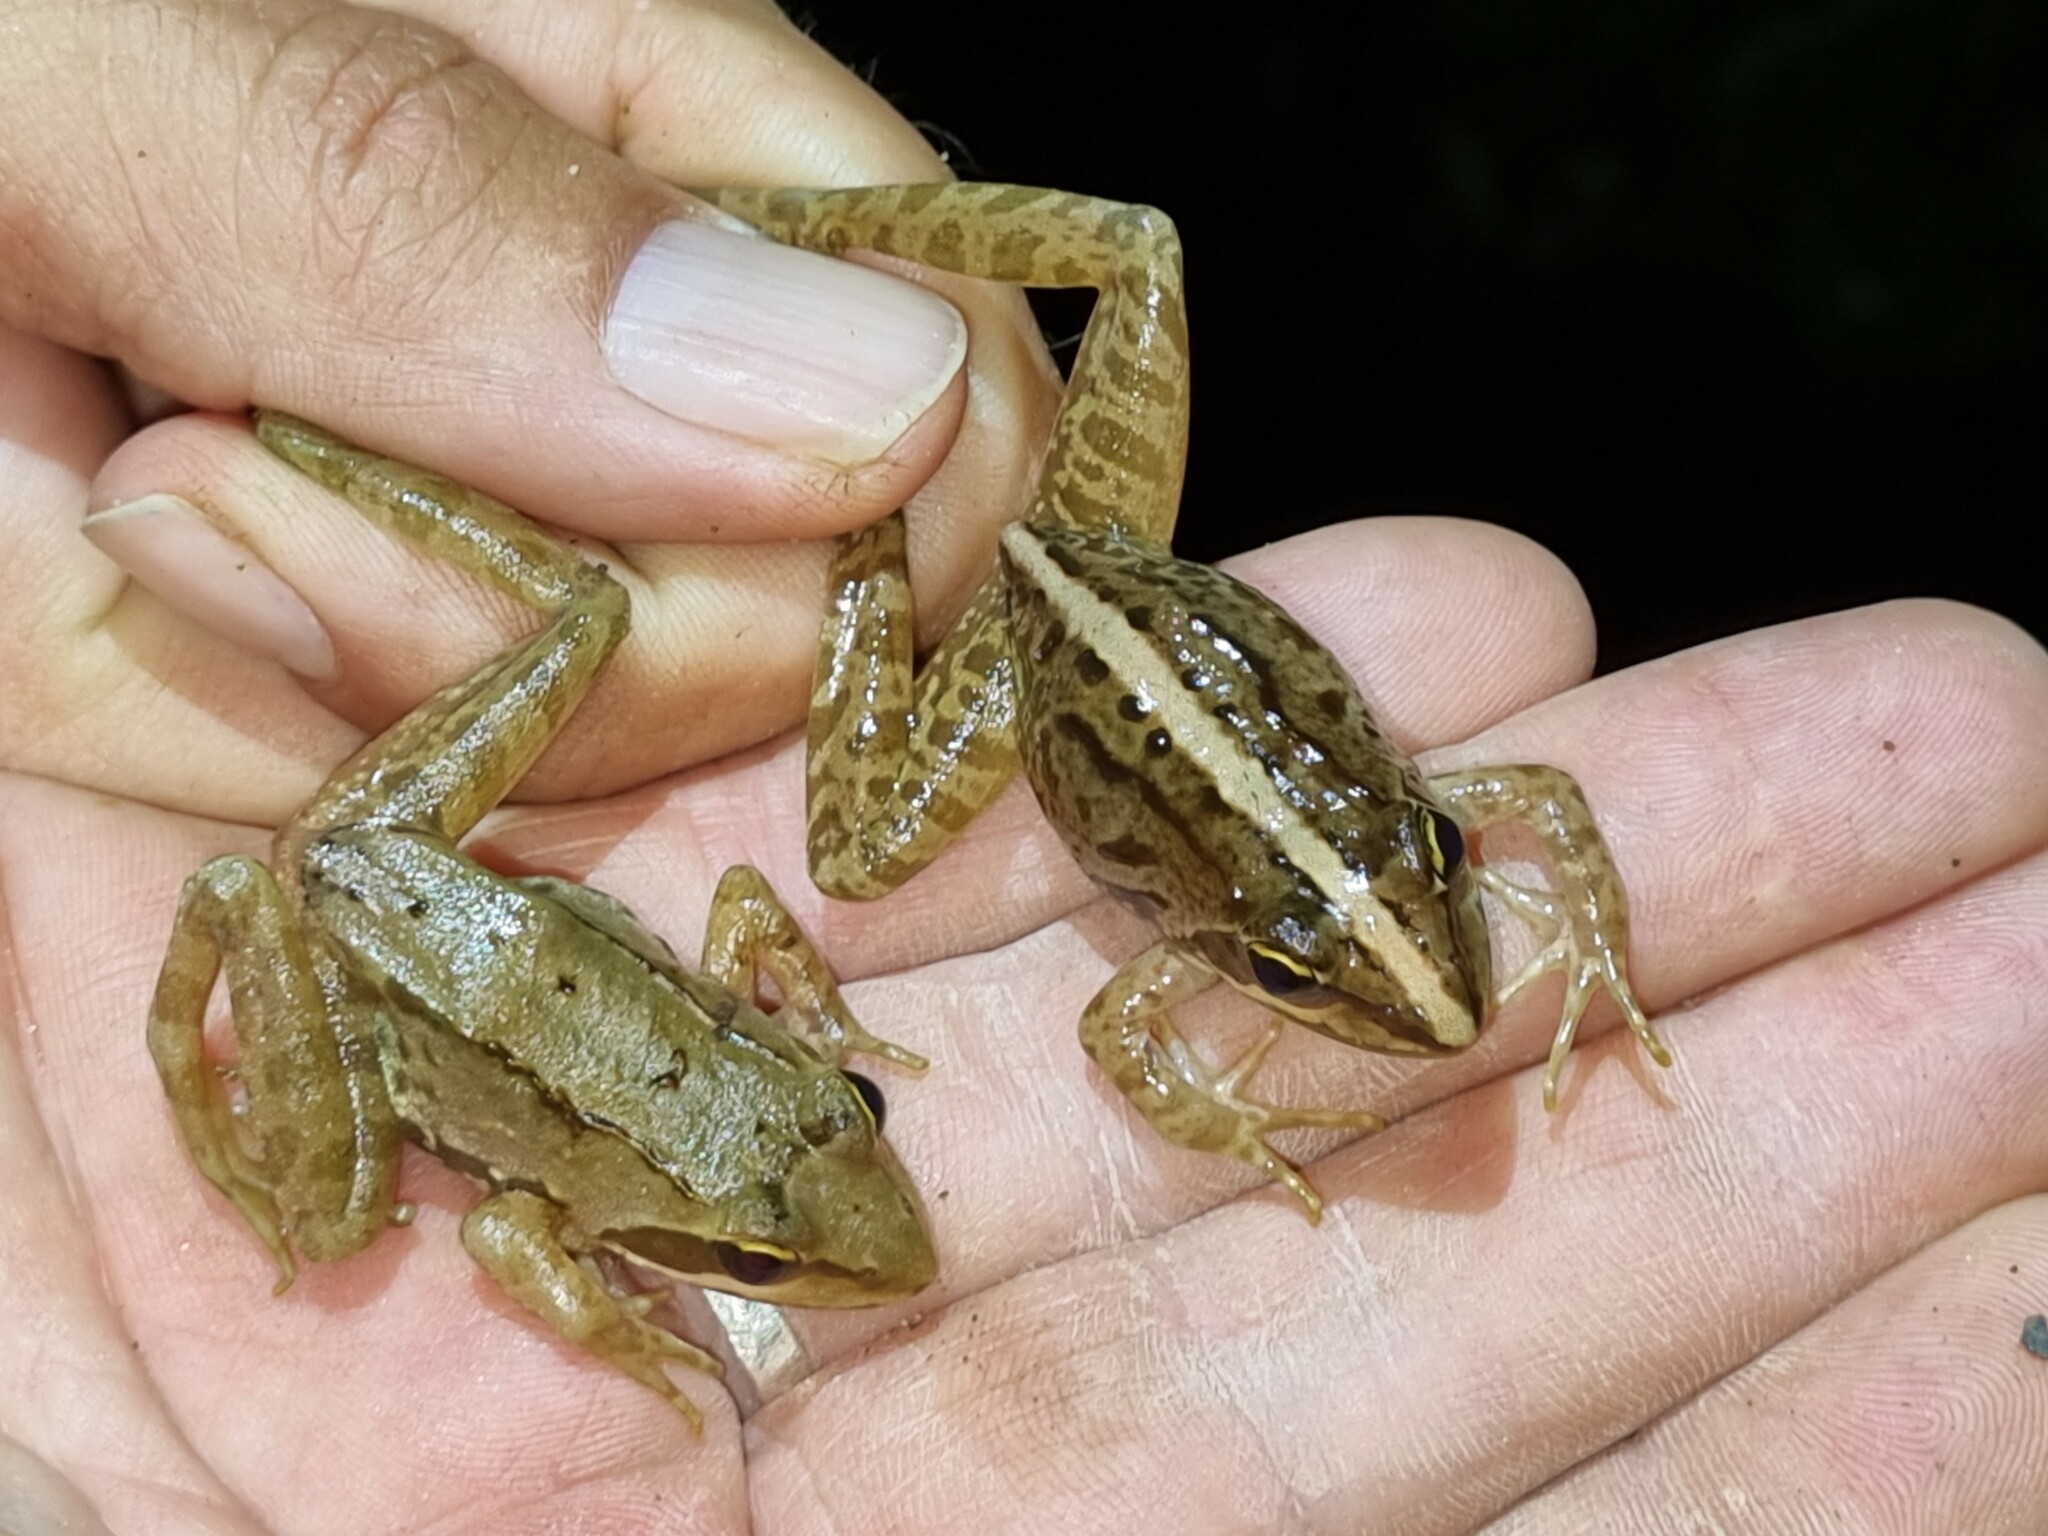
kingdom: Animalia
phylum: Chordata
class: Amphibia
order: Anura
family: Pyxicephalidae
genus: Amietia
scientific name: Amietia tenuoplicata
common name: River frog
